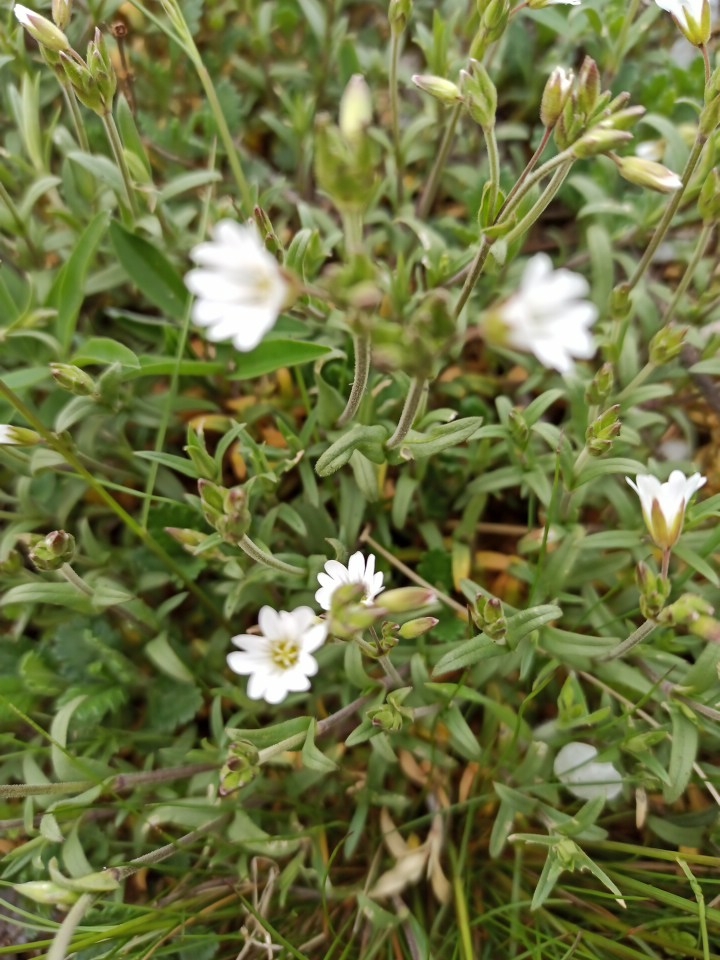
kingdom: Plantae
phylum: Tracheophyta
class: Magnoliopsida
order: Caryophyllales
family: Caryophyllaceae
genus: Cerastium
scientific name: Cerastium arvense
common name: Field mouse-ear
